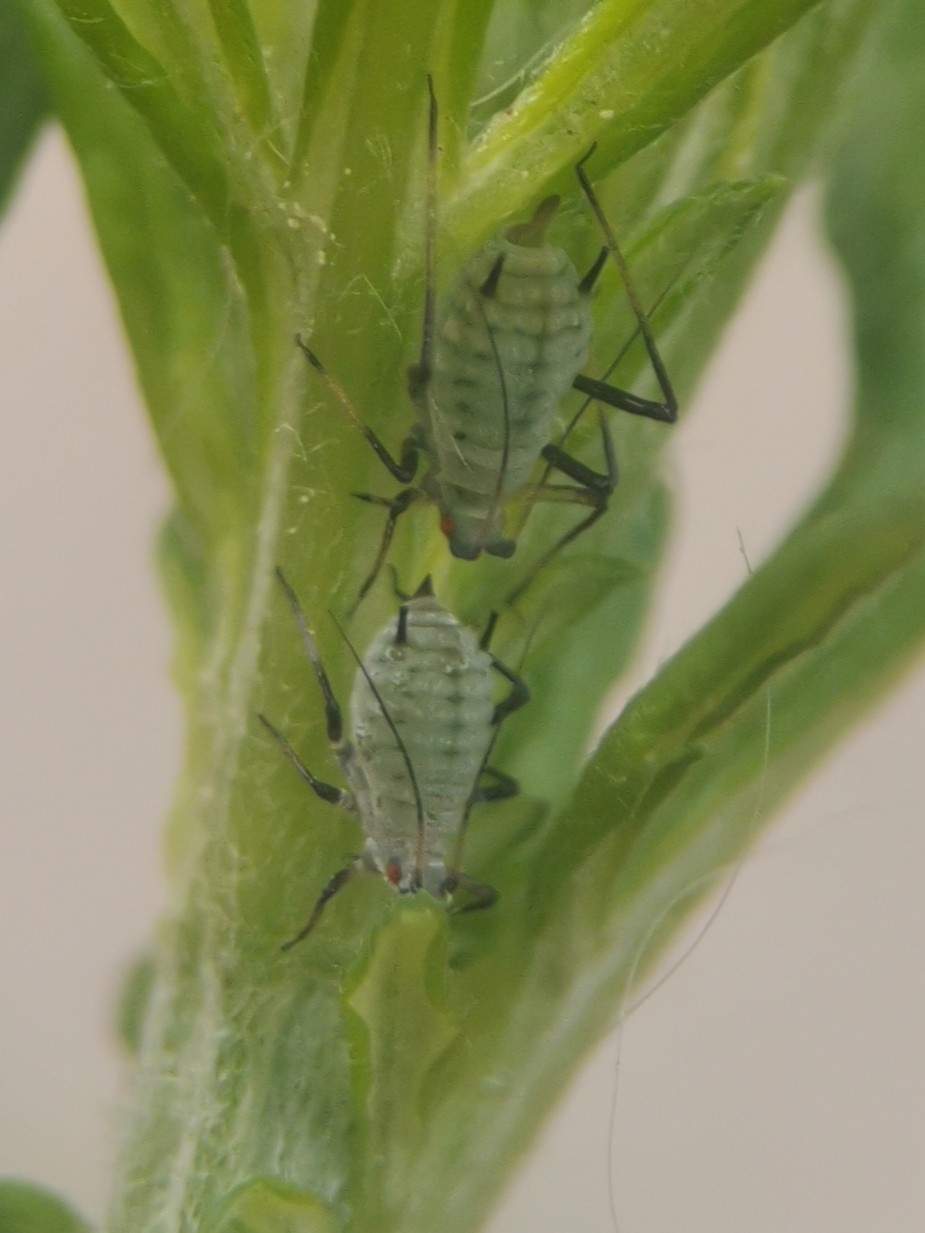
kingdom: Animalia
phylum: Arthropoda
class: Insecta
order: Hemiptera
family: Aphididae
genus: Macrosiphoniella
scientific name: Macrosiphoniella artemisiae
